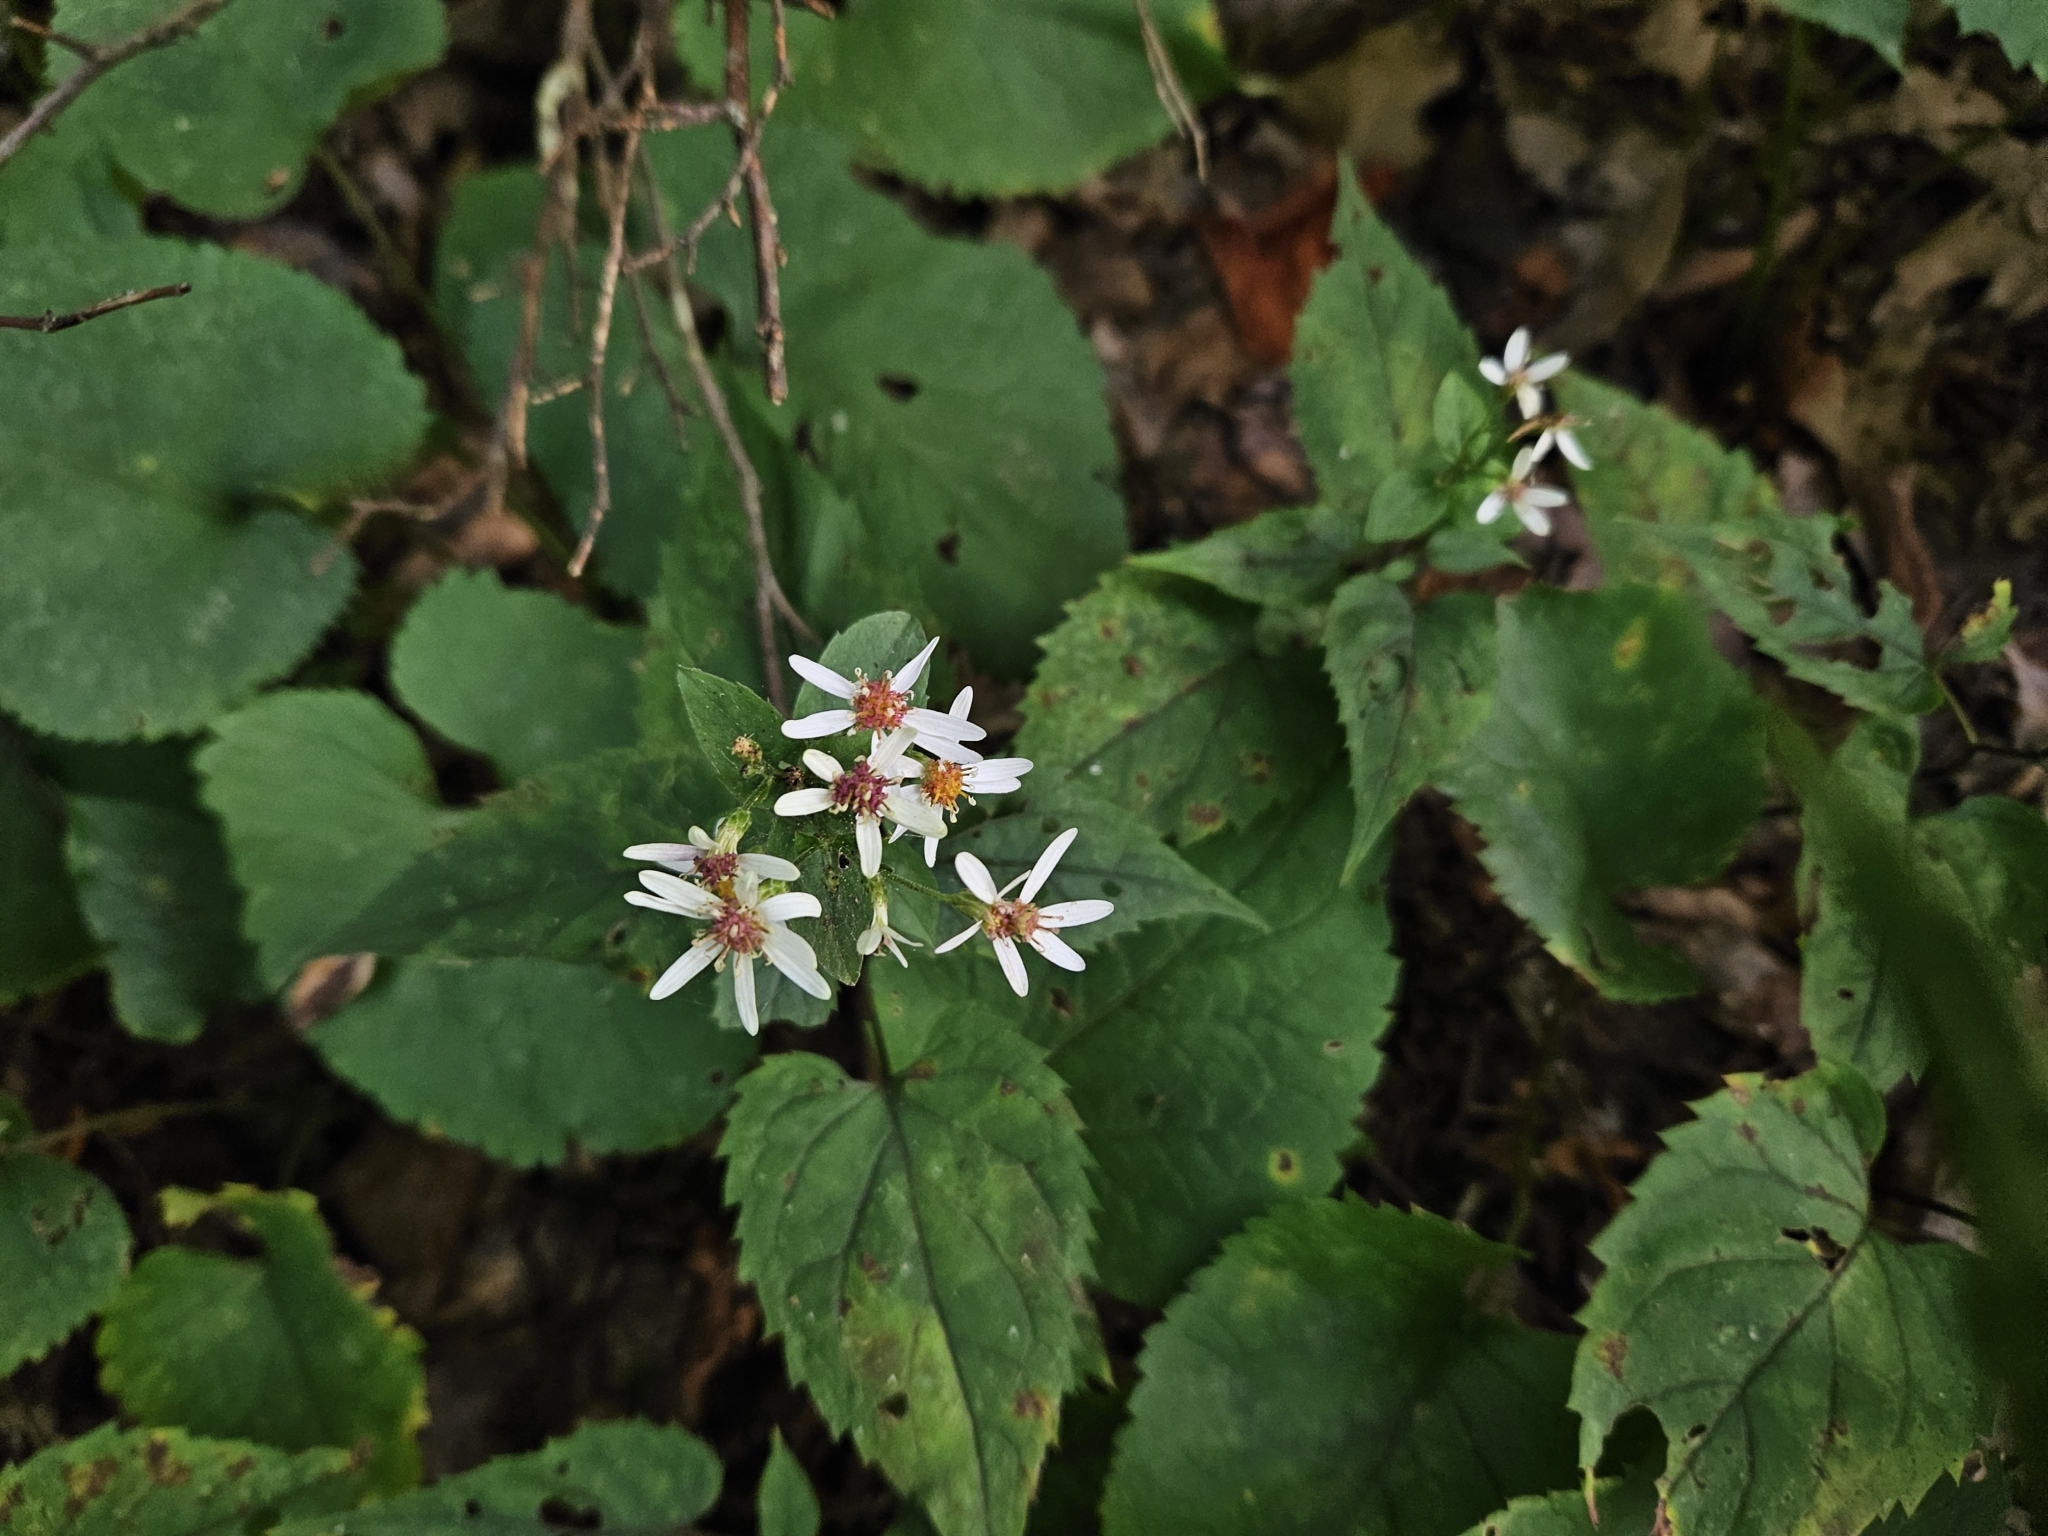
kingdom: Plantae
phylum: Tracheophyta
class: Magnoliopsida
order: Asterales
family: Asteraceae
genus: Eurybia
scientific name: Eurybia divaricata
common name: White wood aster
